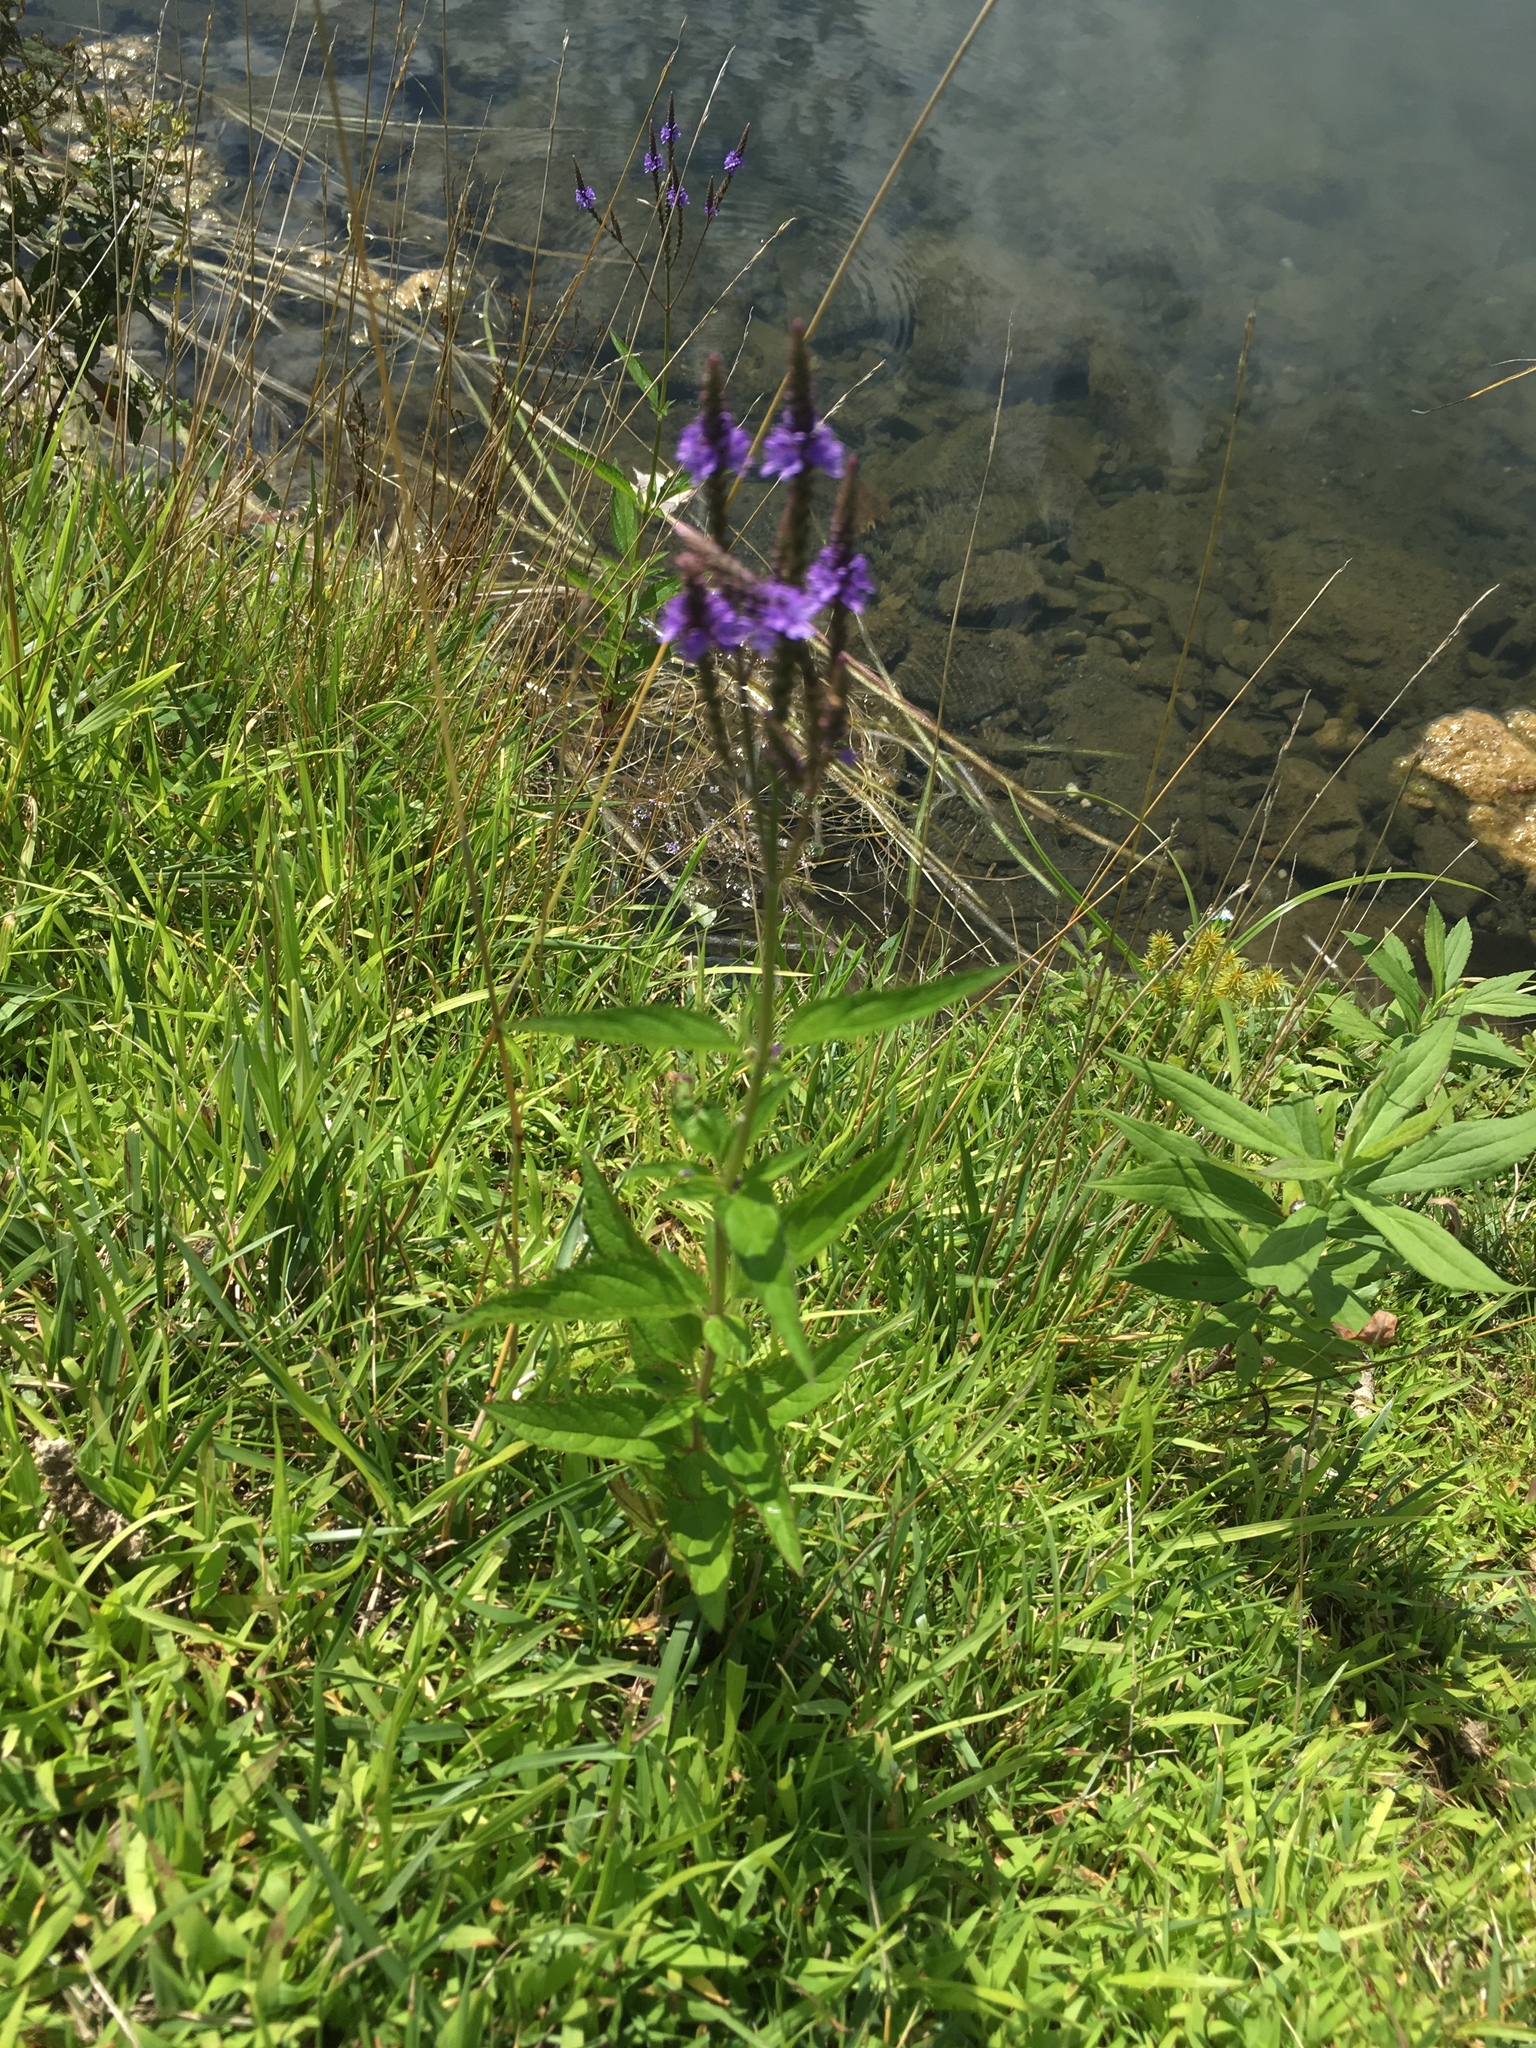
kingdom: Plantae
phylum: Tracheophyta
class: Magnoliopsida
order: Lamiales
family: Verbenaceae
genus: Verbena
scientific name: Verbena hastata
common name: American blue vervain
